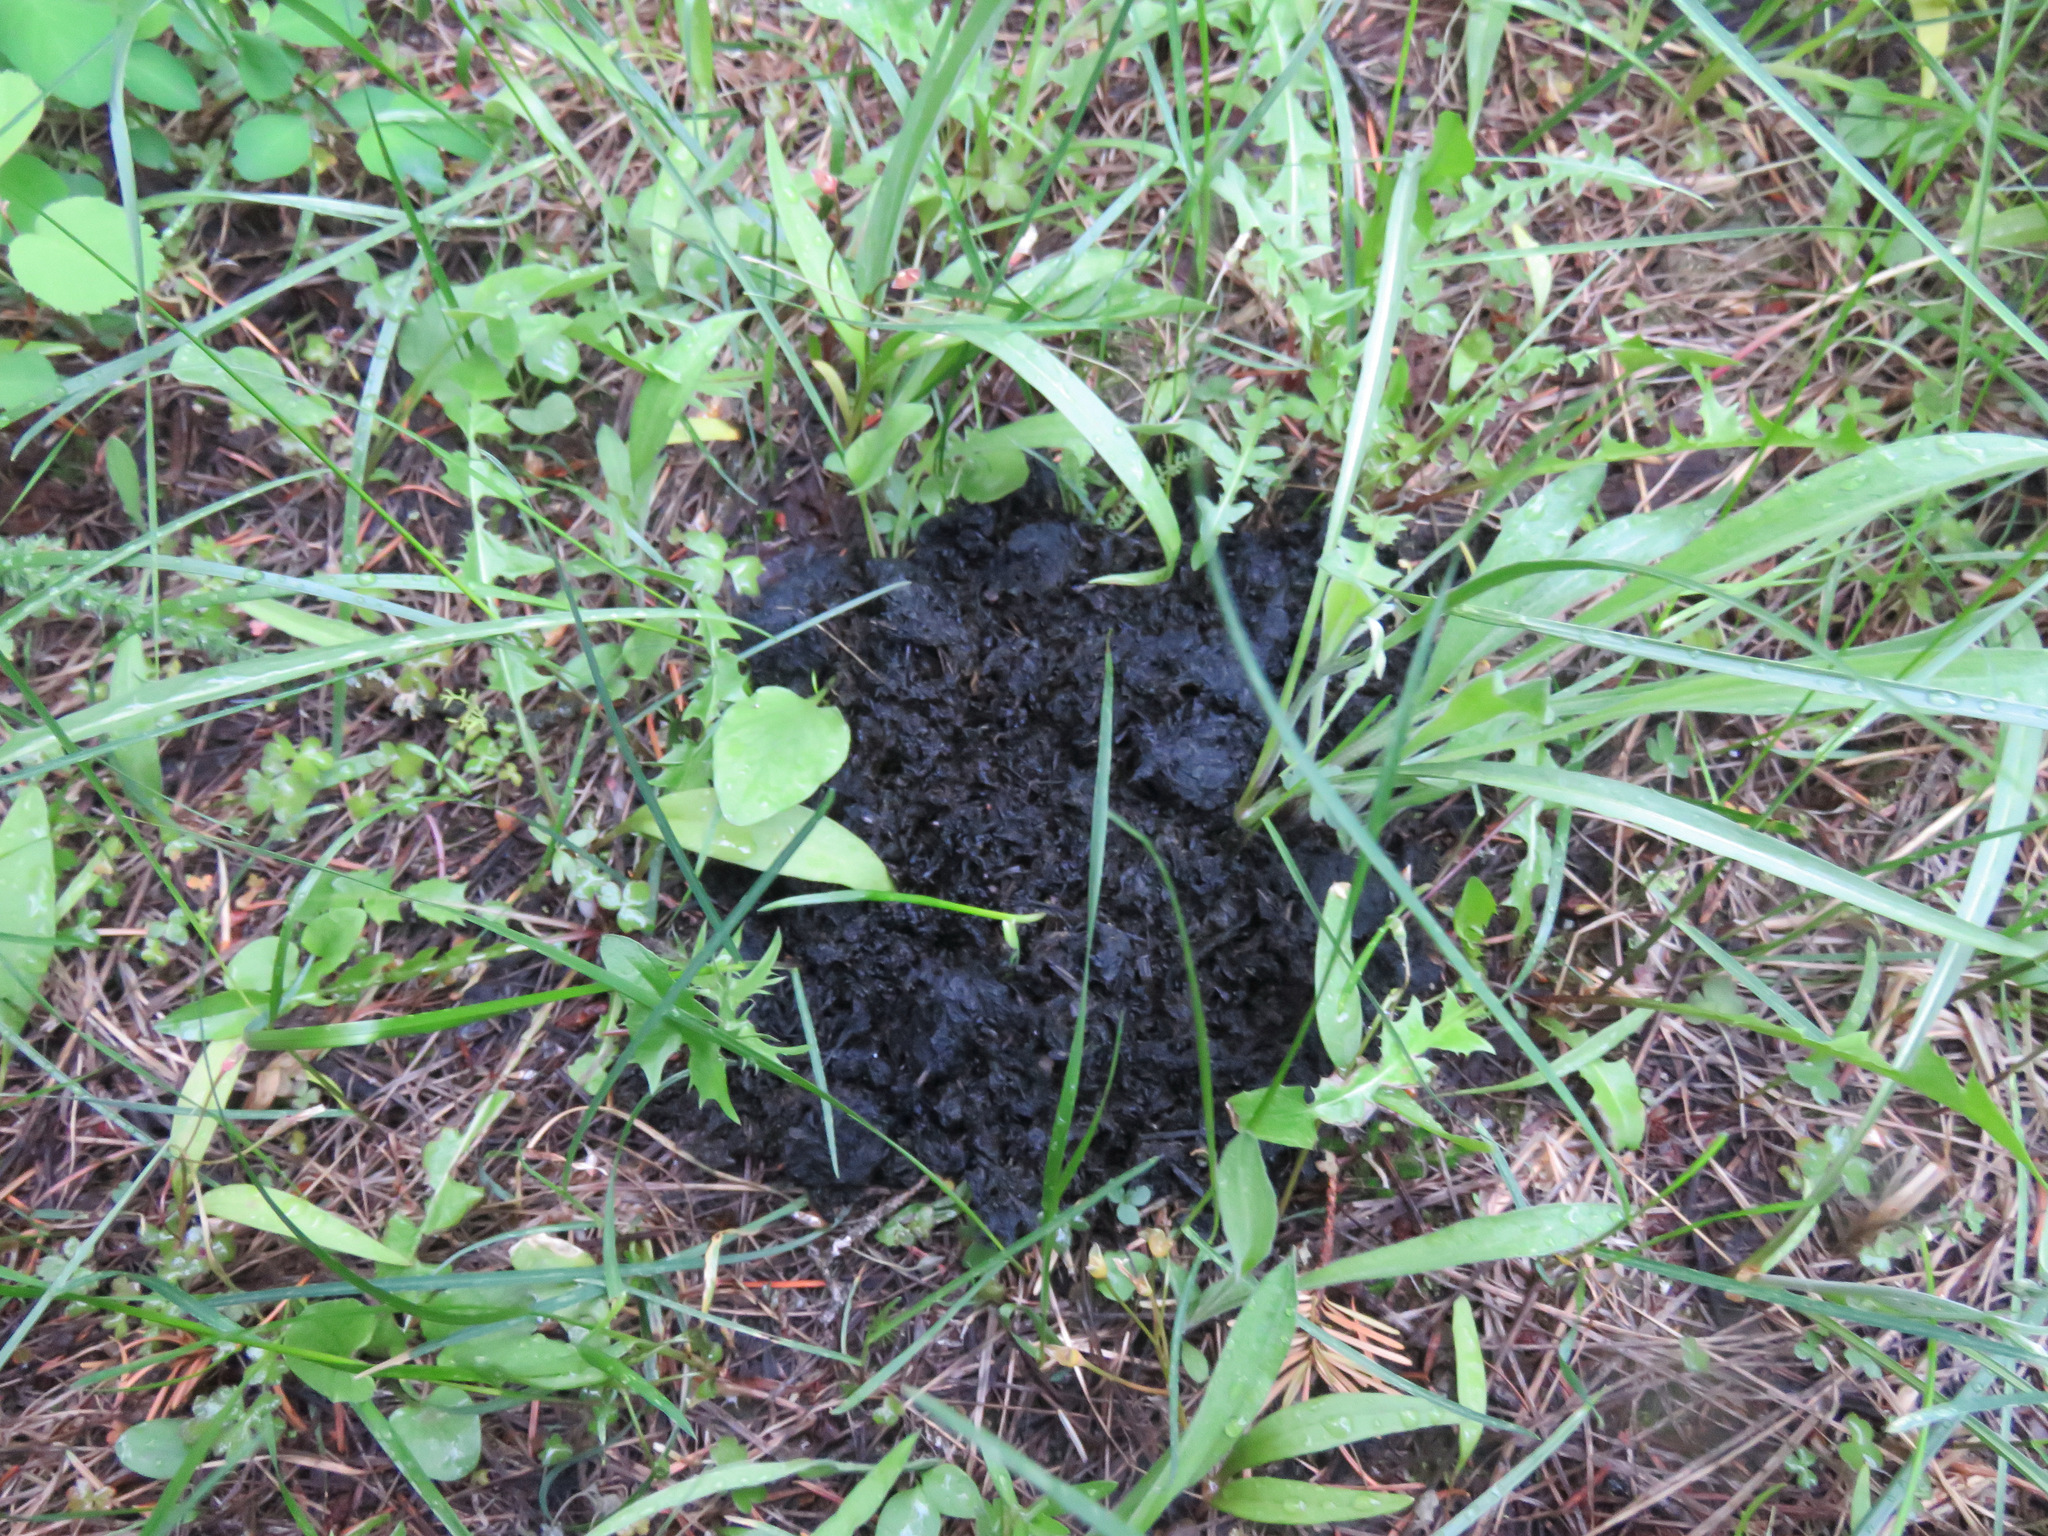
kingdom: Animalia
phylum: Chordata
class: Mammalia
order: Carnivora
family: Ursidae
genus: Ursus
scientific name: Ursus americanus
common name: American black bear
